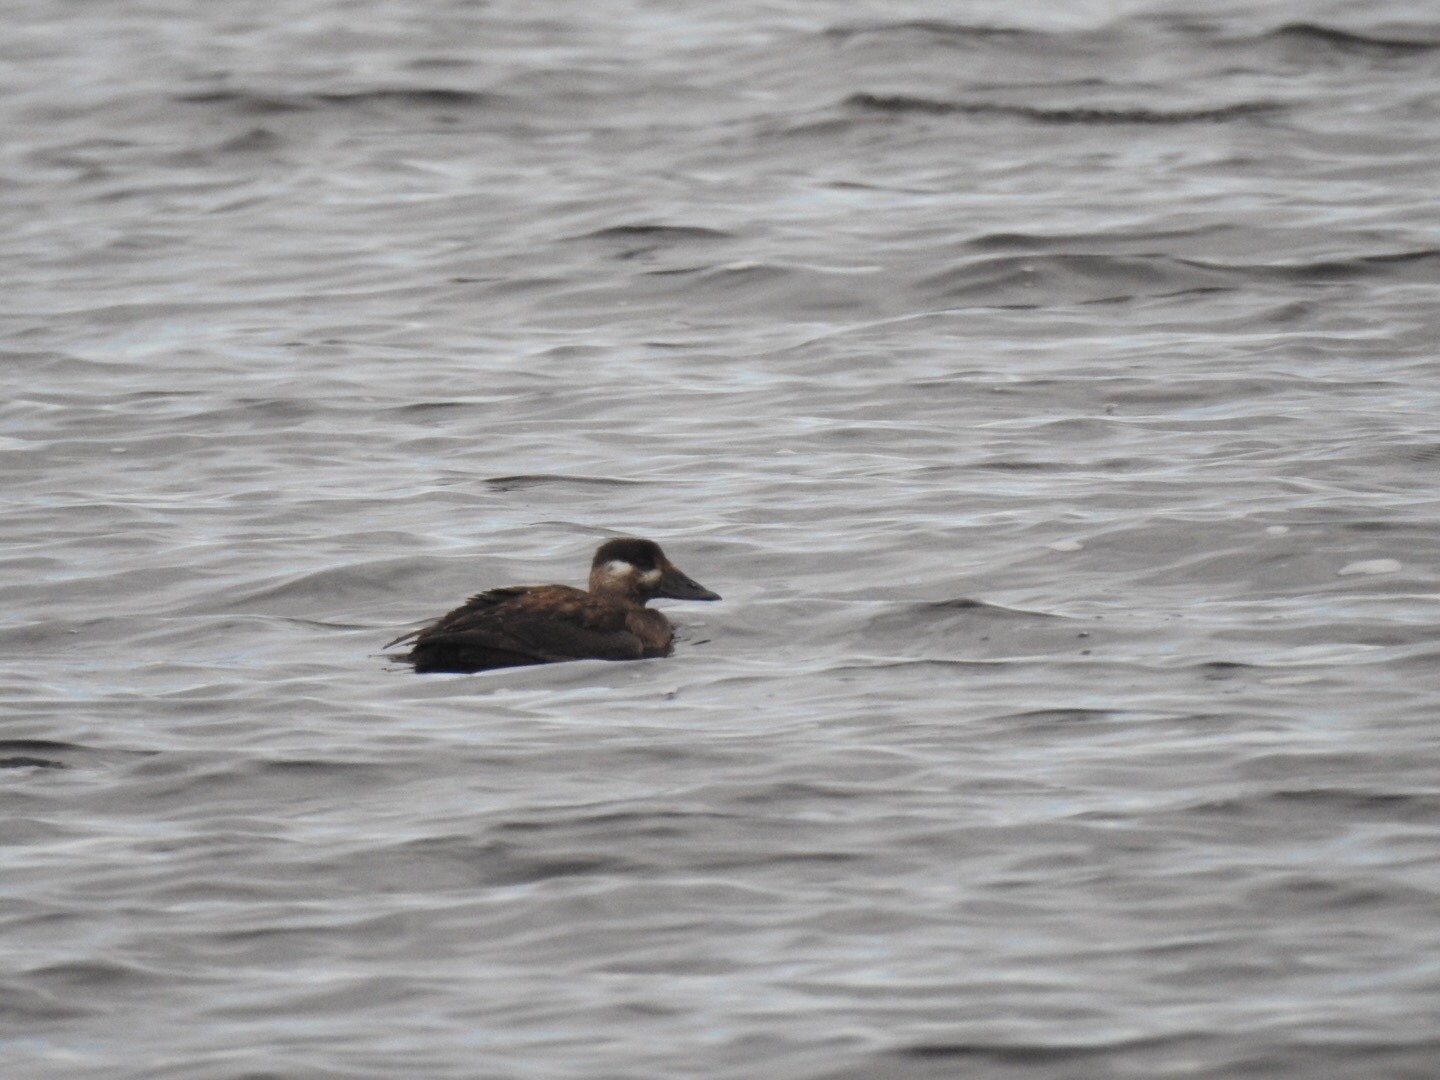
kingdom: Animalia
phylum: Chordata
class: Aves
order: Anseriformes
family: Anatidae
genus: Melanitta
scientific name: Melanitta perspicillata
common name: Surf scoter
